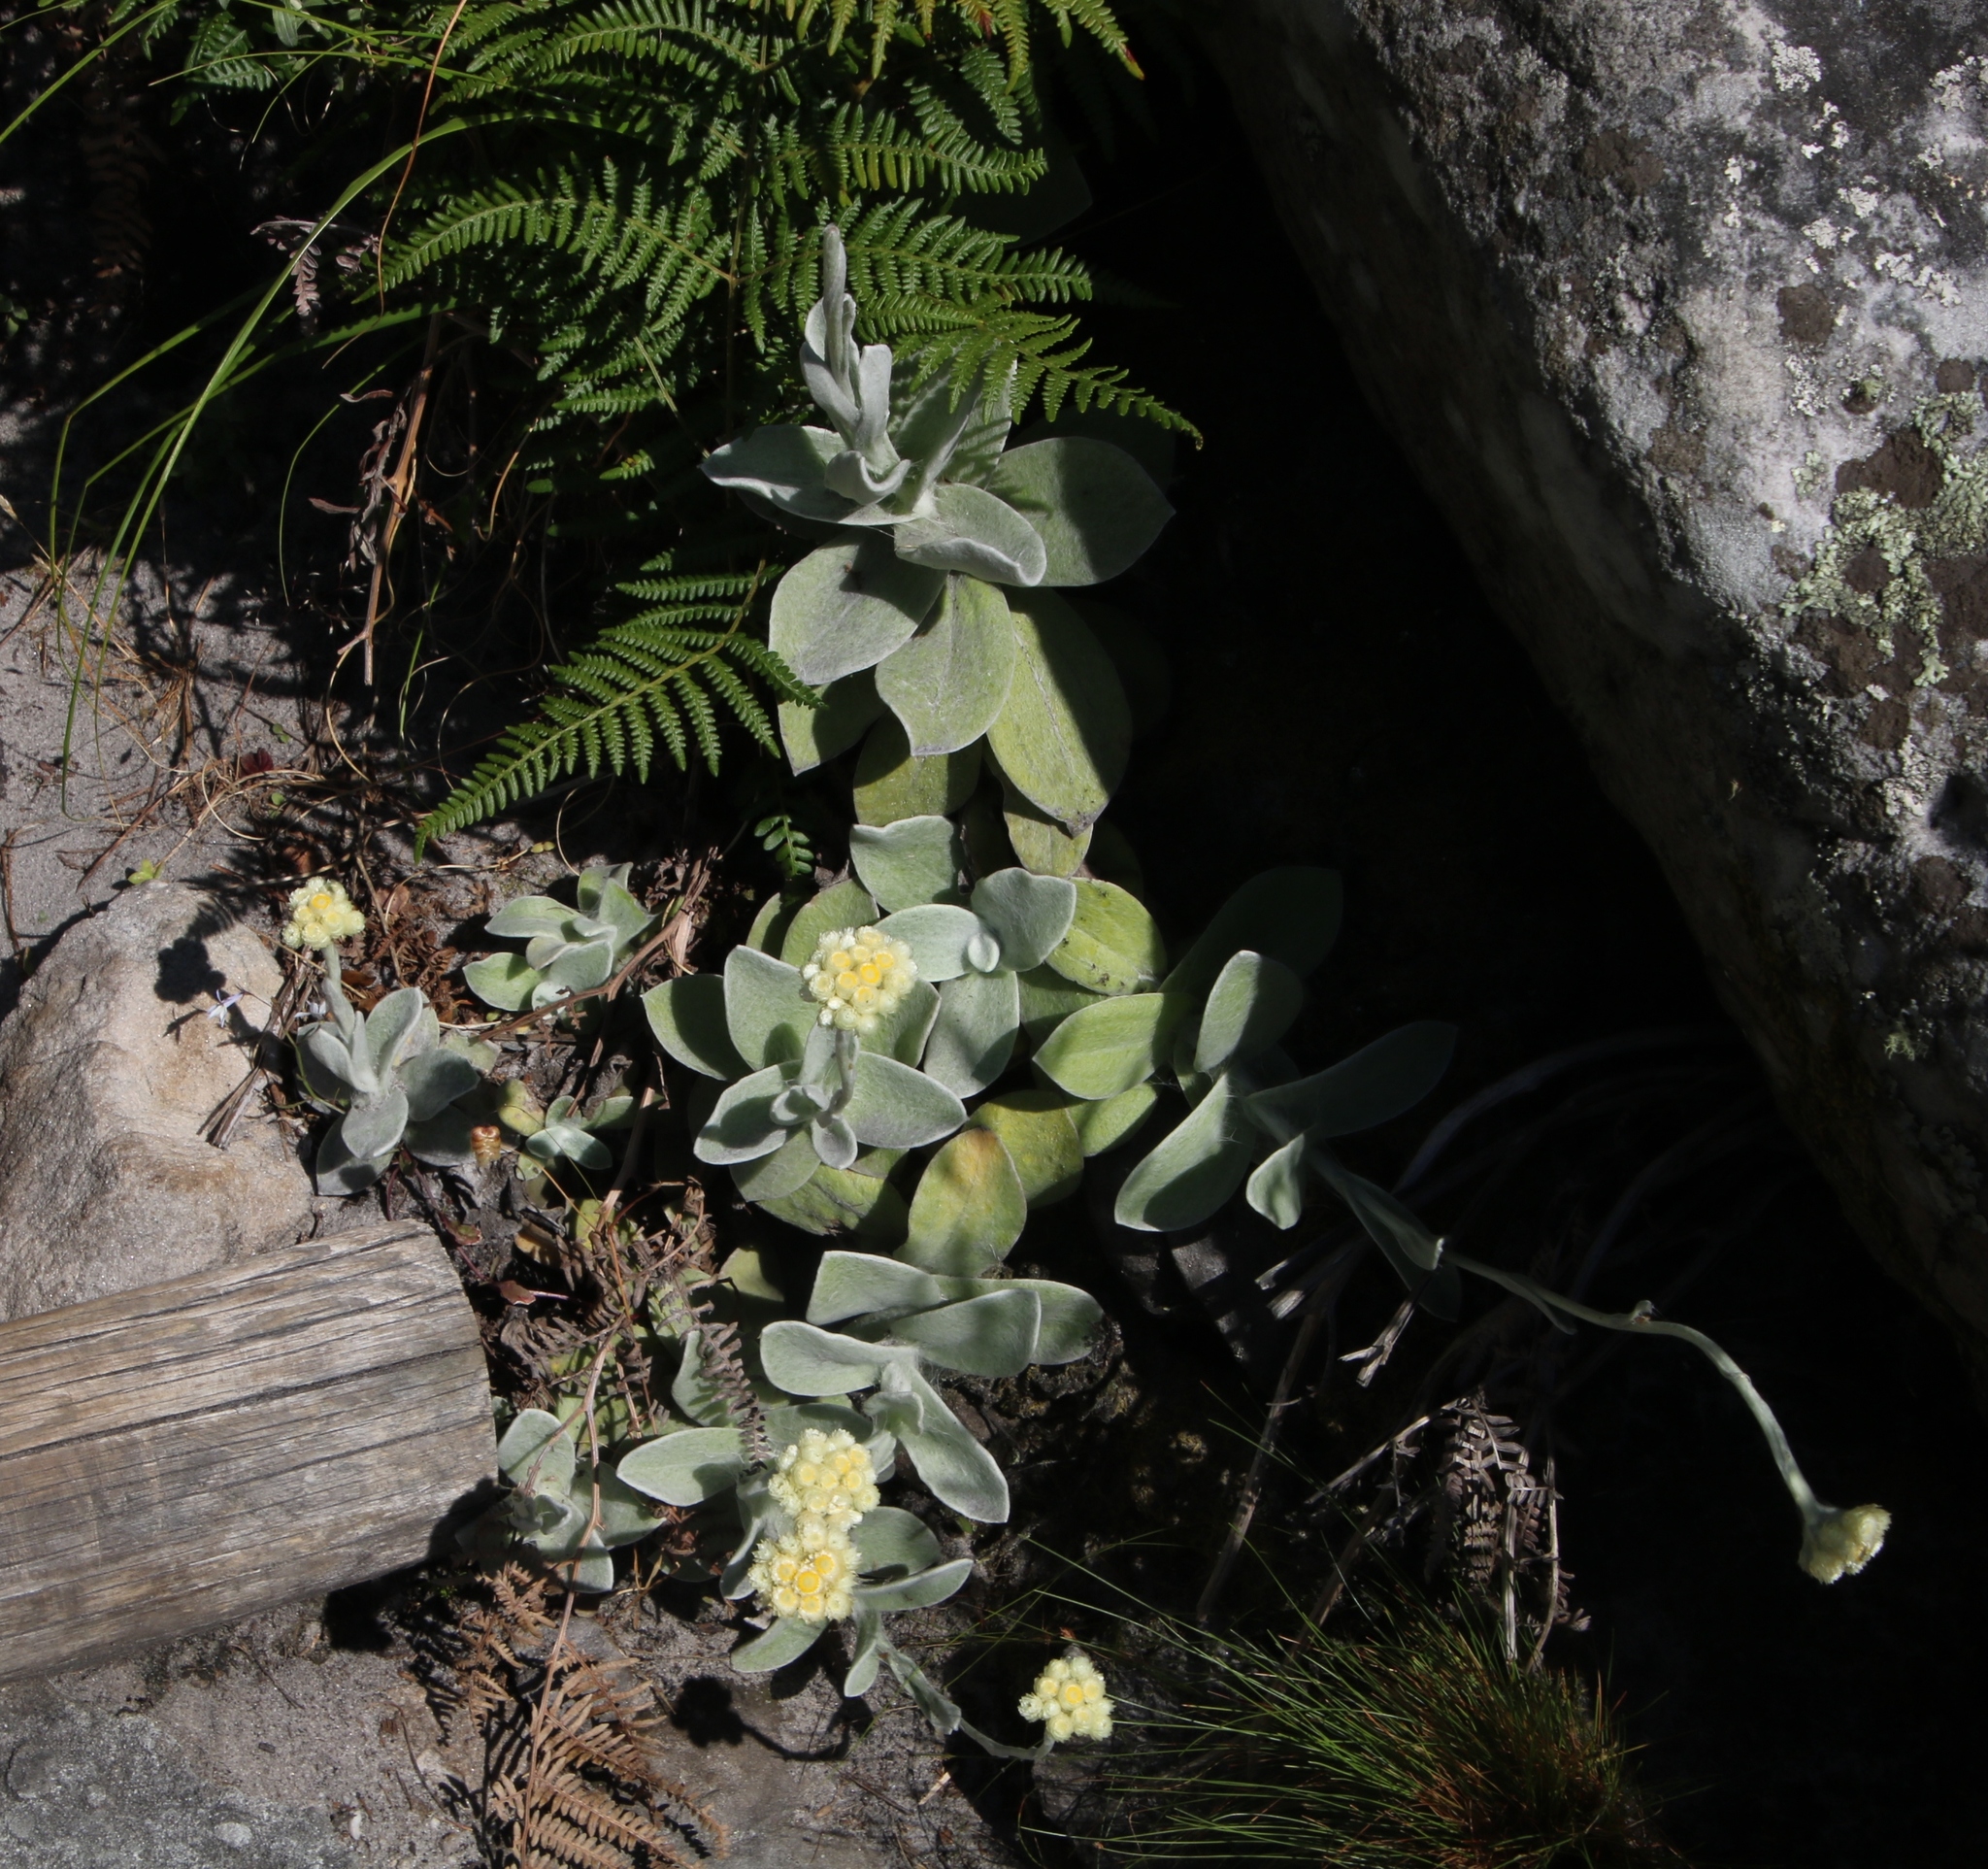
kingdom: Plantae
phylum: Tracheophyta
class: Magnoliopsida
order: Asterales
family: Asteraceae
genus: Helichrysum
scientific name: Helichrysum grandiflorum
